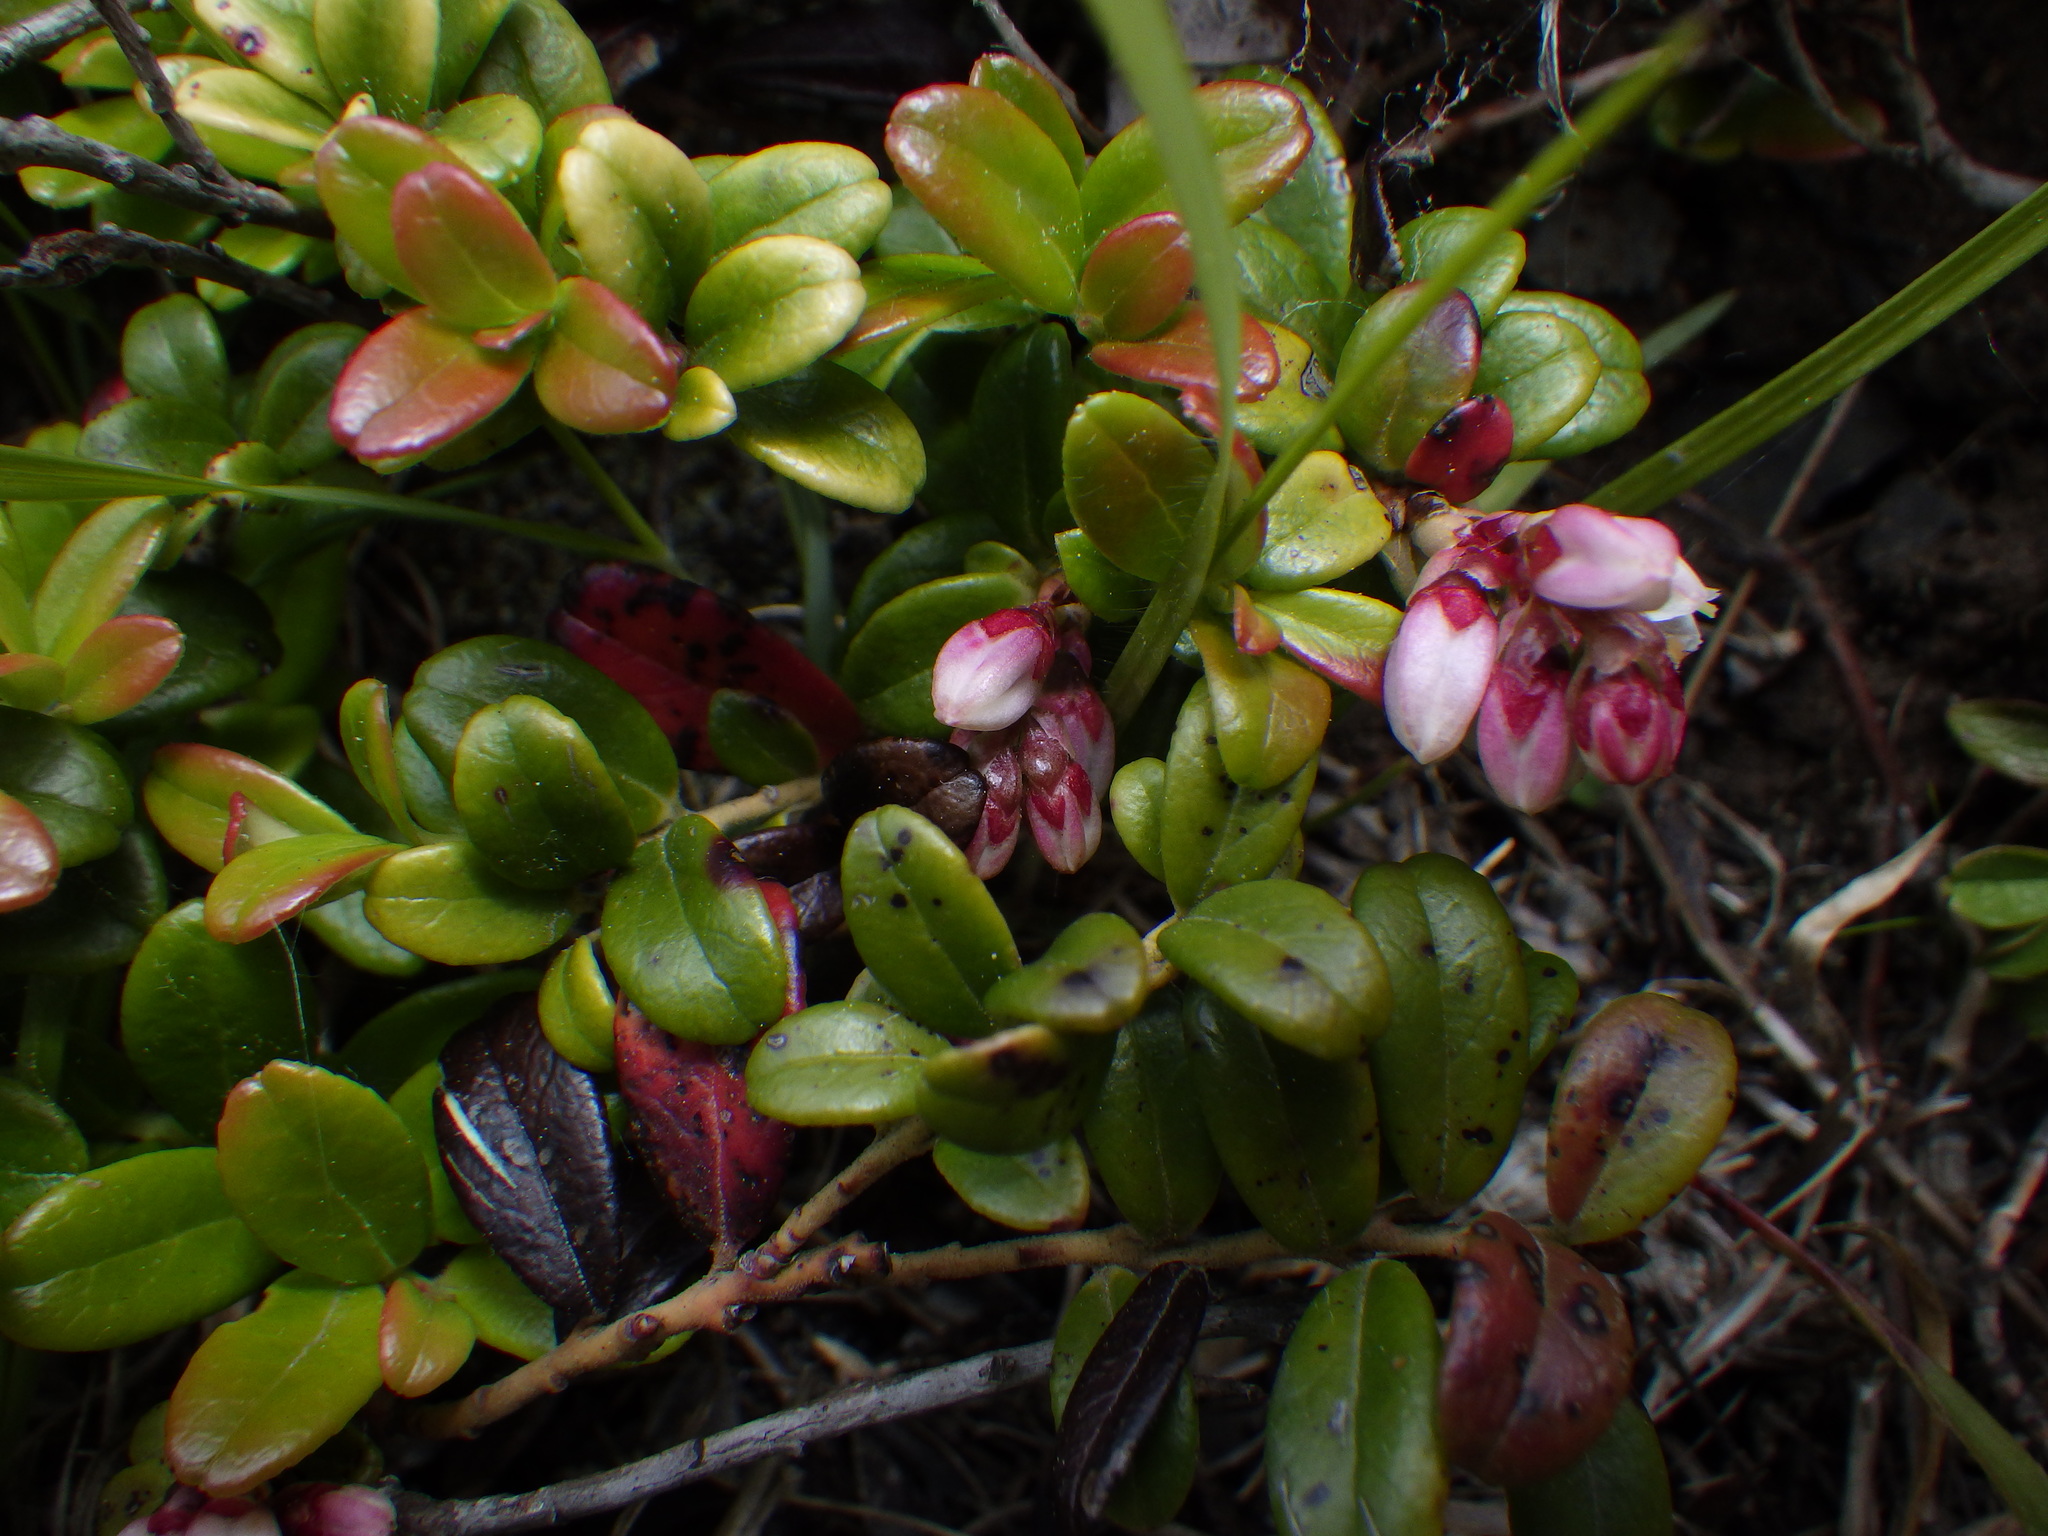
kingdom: Plantae
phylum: Tracheophyta
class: Magnoliopsida
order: Ericales
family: Ericaceae
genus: Vaccinium
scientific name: Vaccinium vitis-idaea
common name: Cowberry
